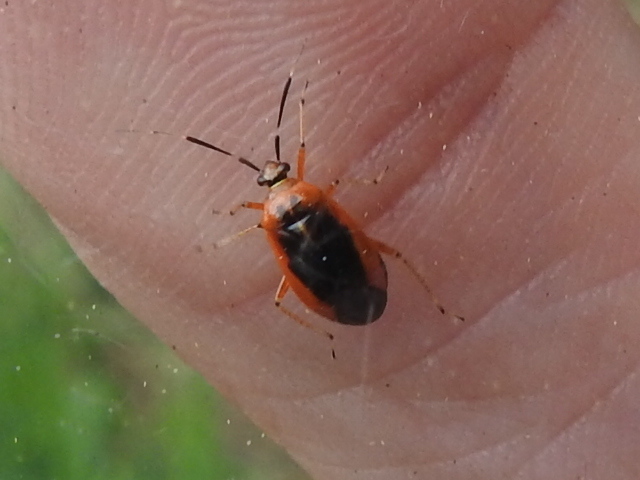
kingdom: Animalia
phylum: Arthropoda
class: Insecta
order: Hemiptera
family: Miridae
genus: Metriorrhynchomiris
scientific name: Metriorrhynchomiris dislocatus
